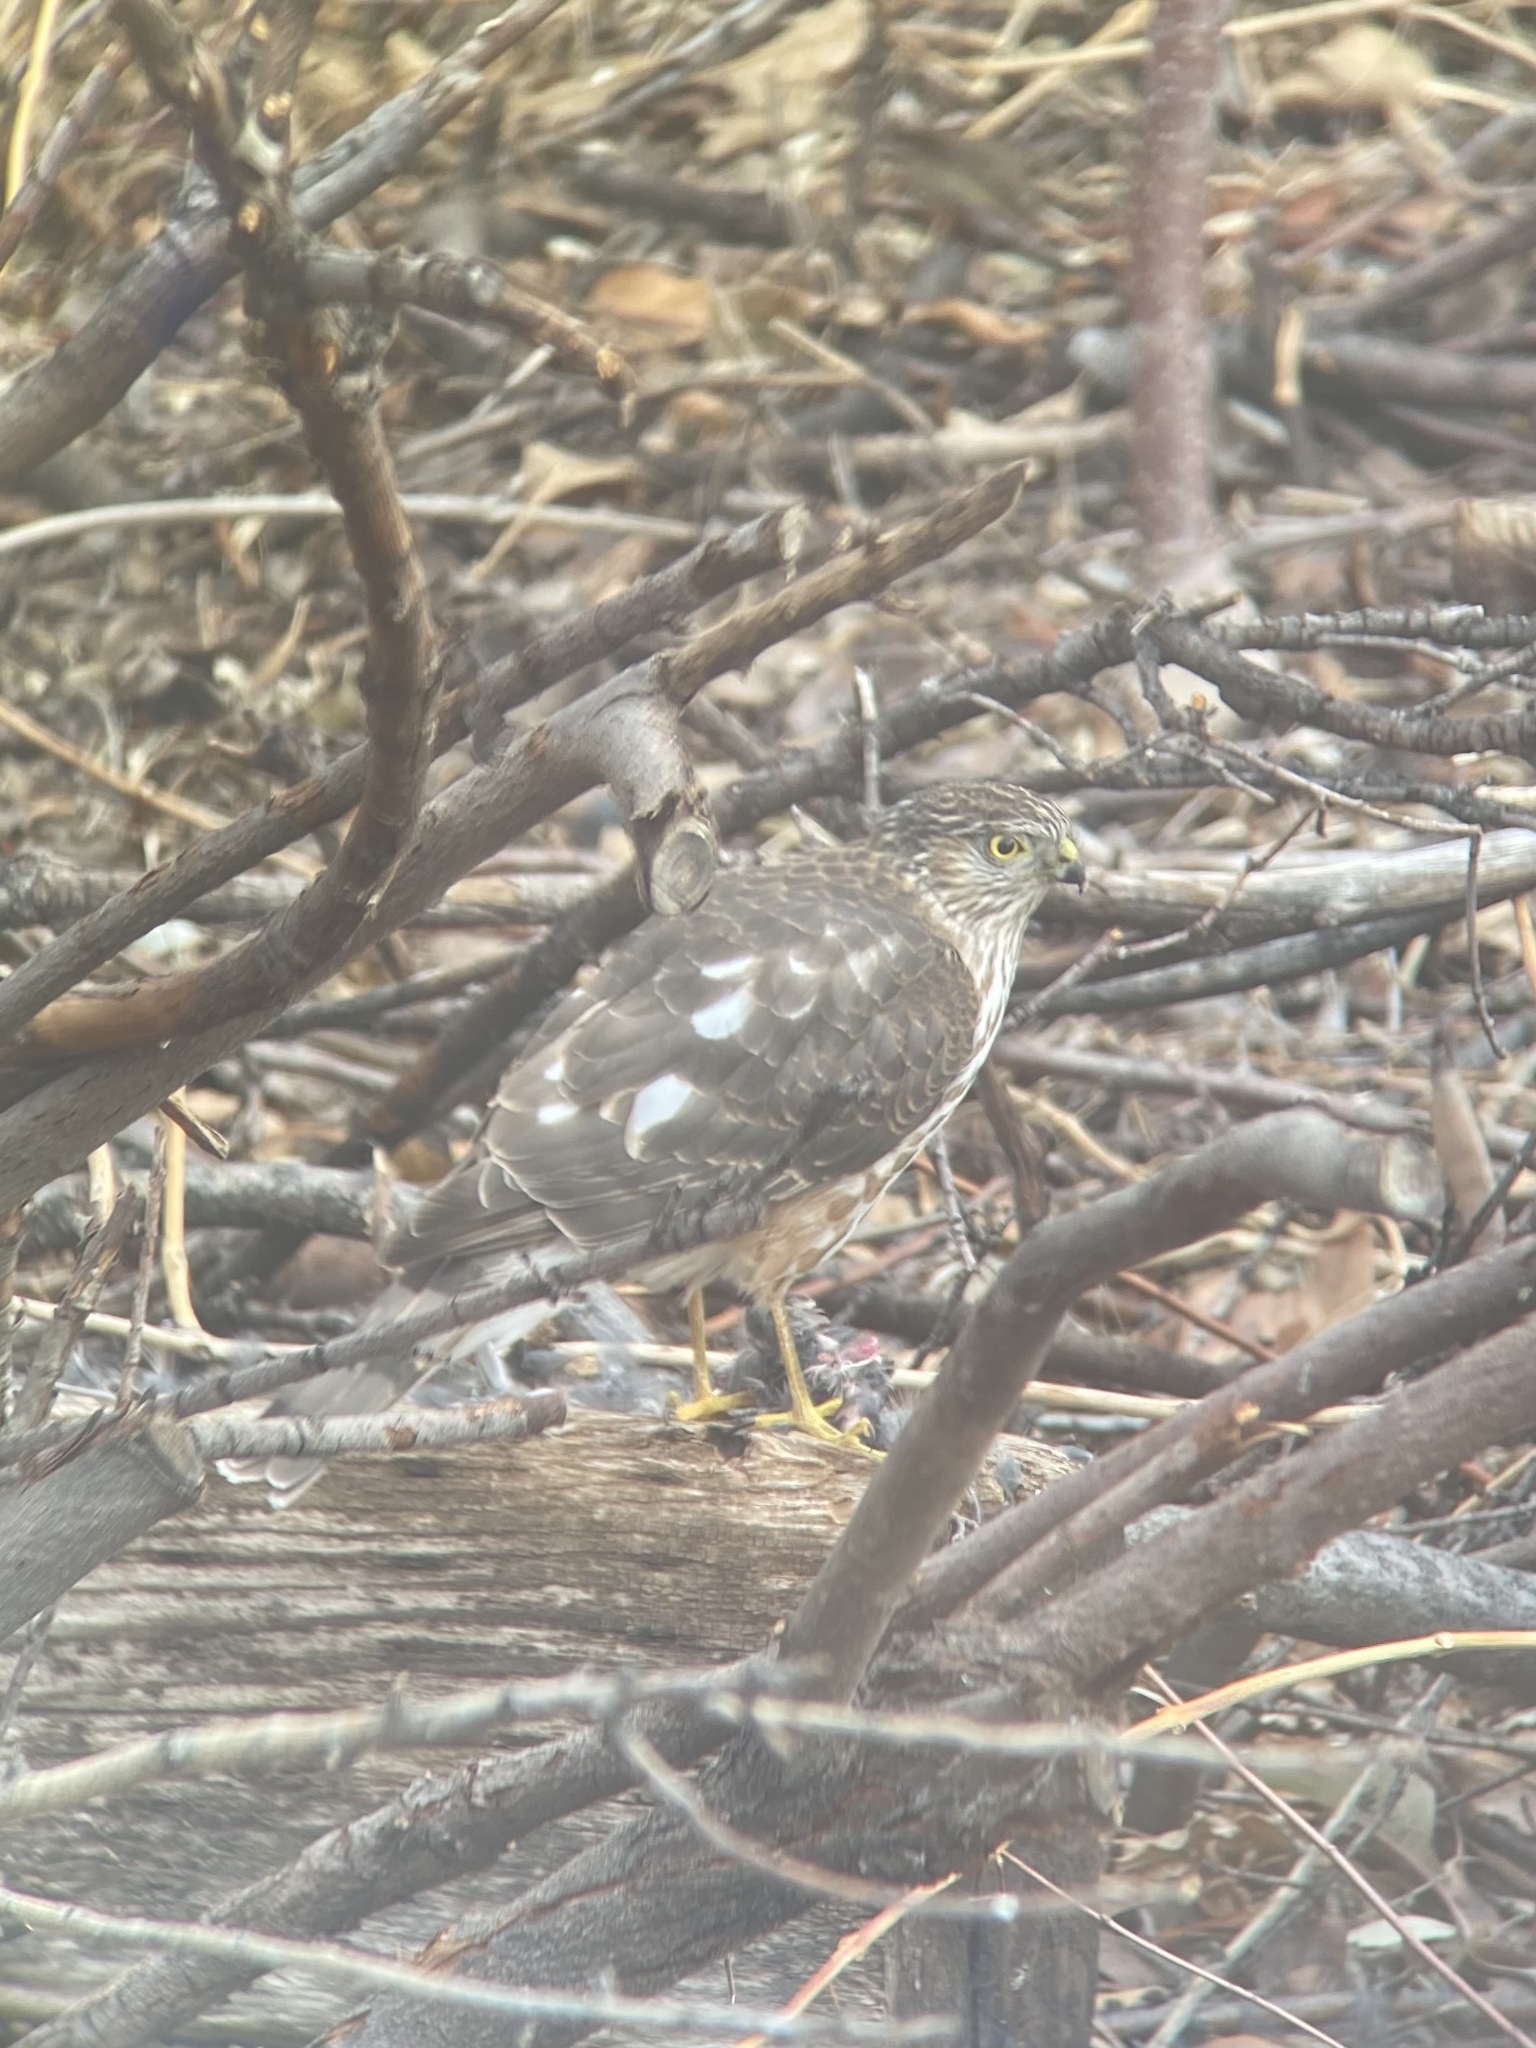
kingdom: Animalia
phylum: Chordata
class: Aves
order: Accipitriformes
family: Accipitridae
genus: Accipiter
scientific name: Accipiter striatus
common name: Sharp-shinned hawk
